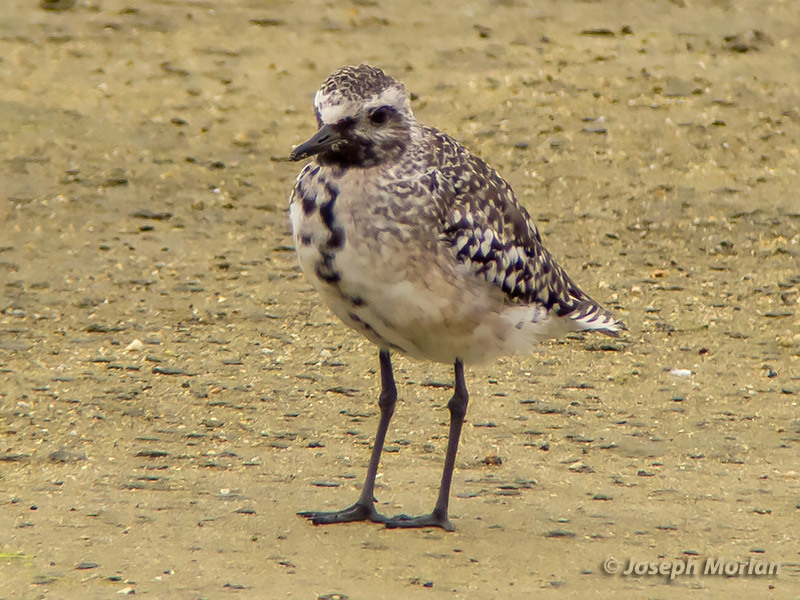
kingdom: Animalia
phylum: Chordata
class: Aves
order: Charadriiformes
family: Charadriidae
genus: Pluvialis
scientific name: Pluvialis squatarola
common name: Grey plover
